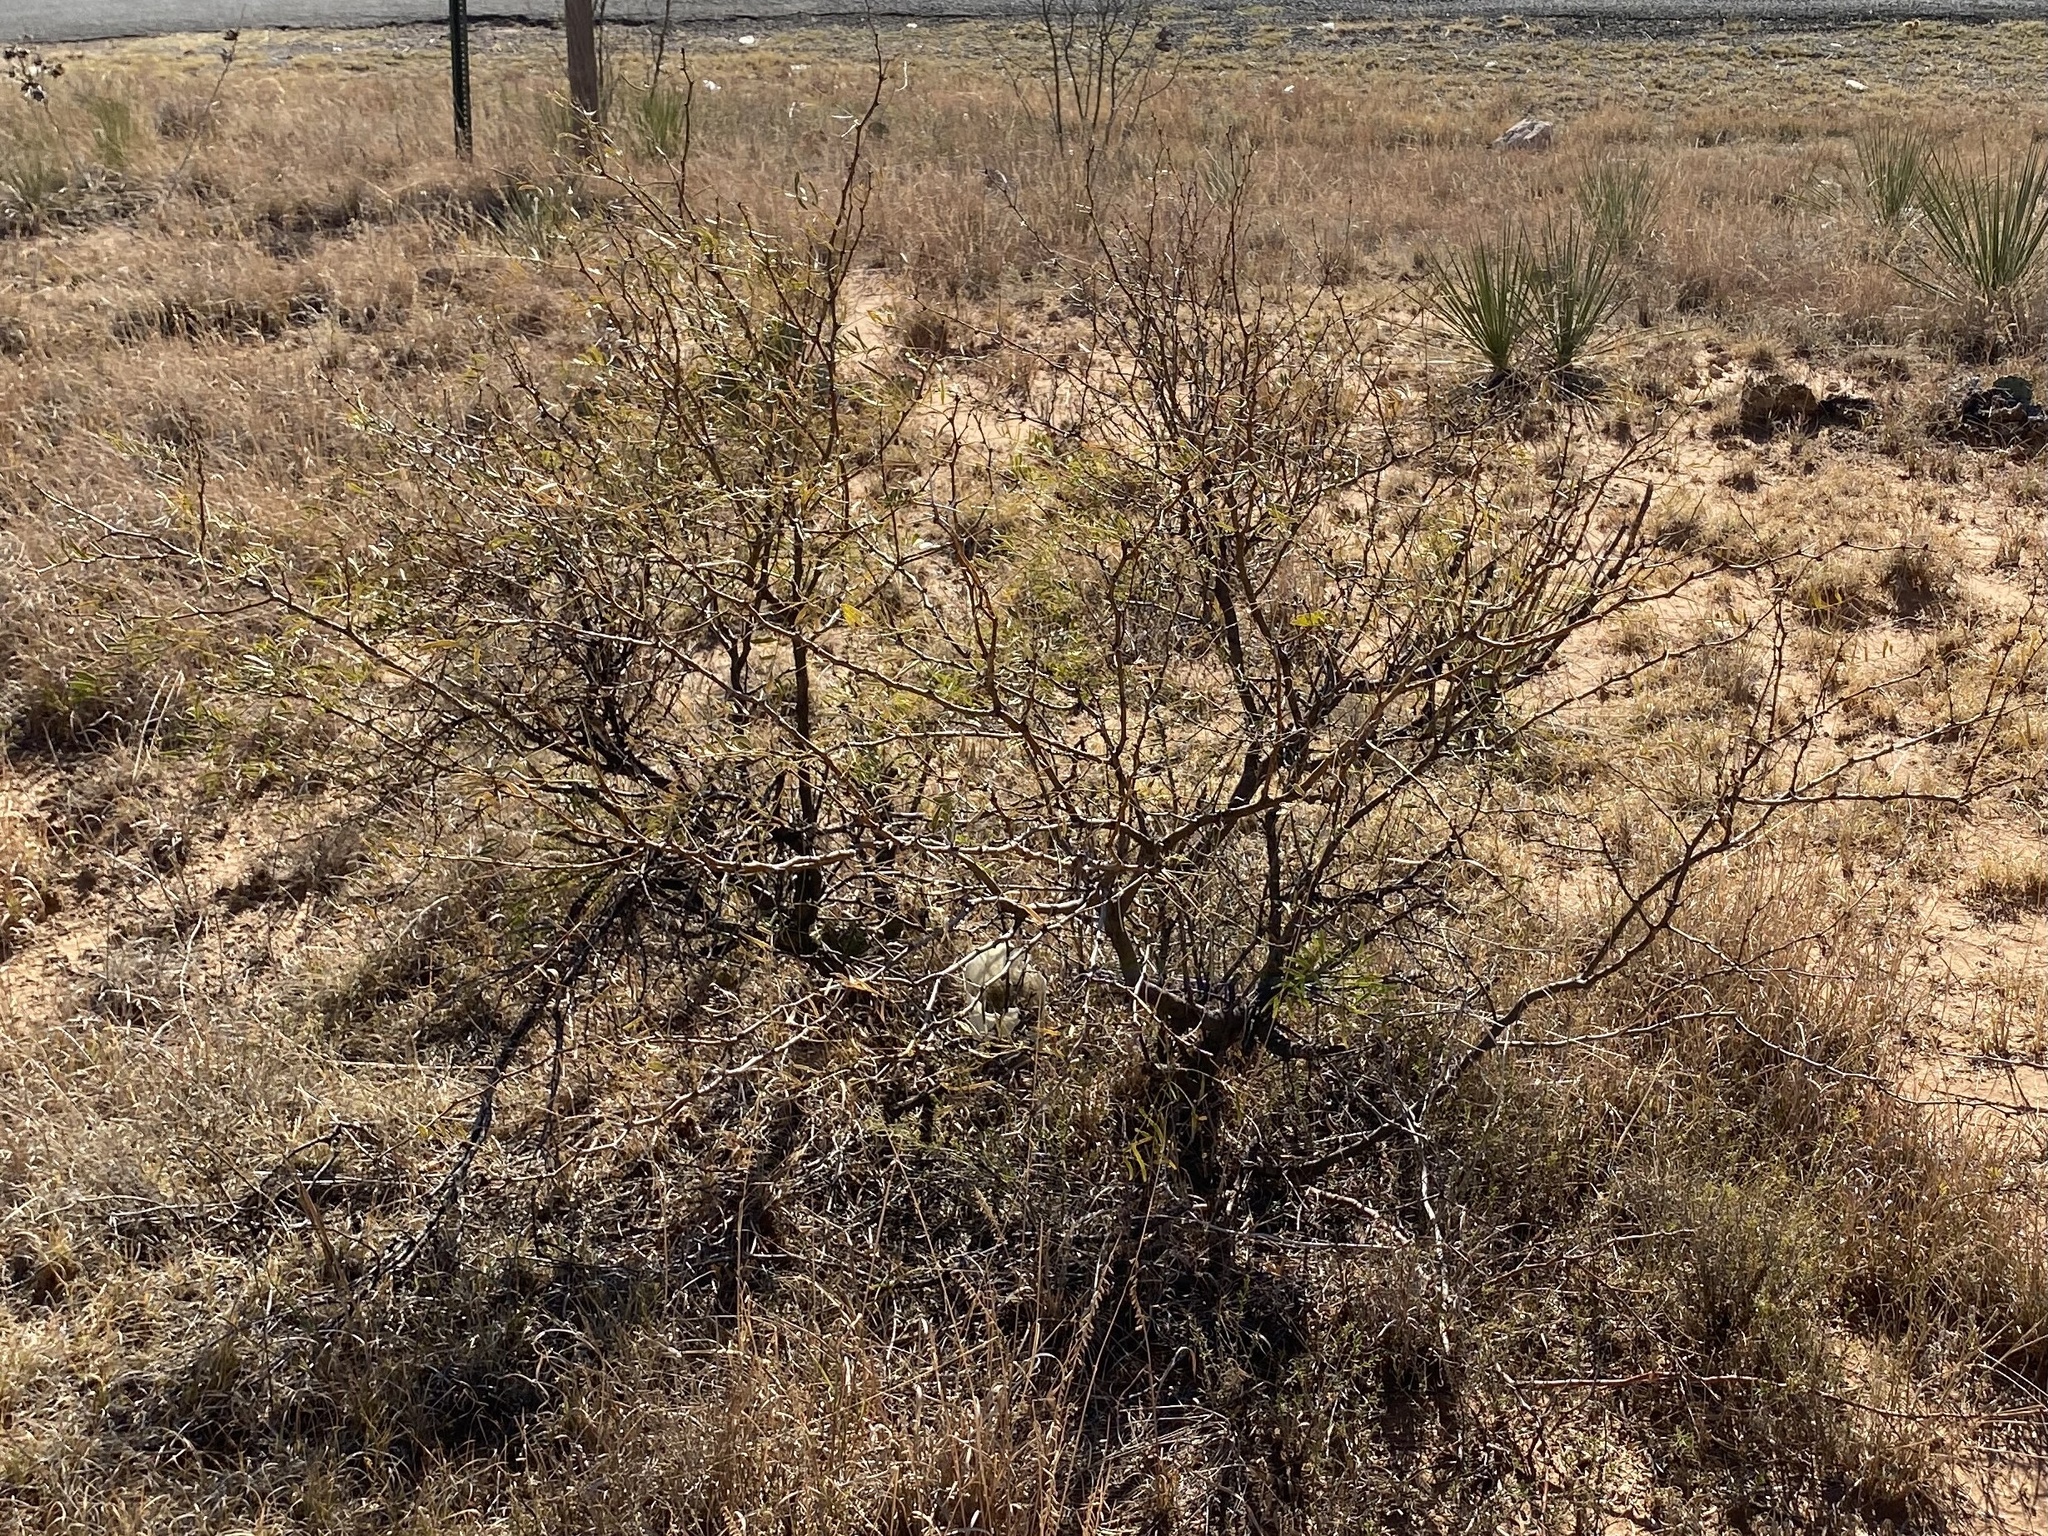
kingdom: Plantae
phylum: Tracheophyta
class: Magnoliopsida
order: Fabales
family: Fabaceae
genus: Prosopis
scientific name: Prosopis glandulosa
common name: Honey mesquite
